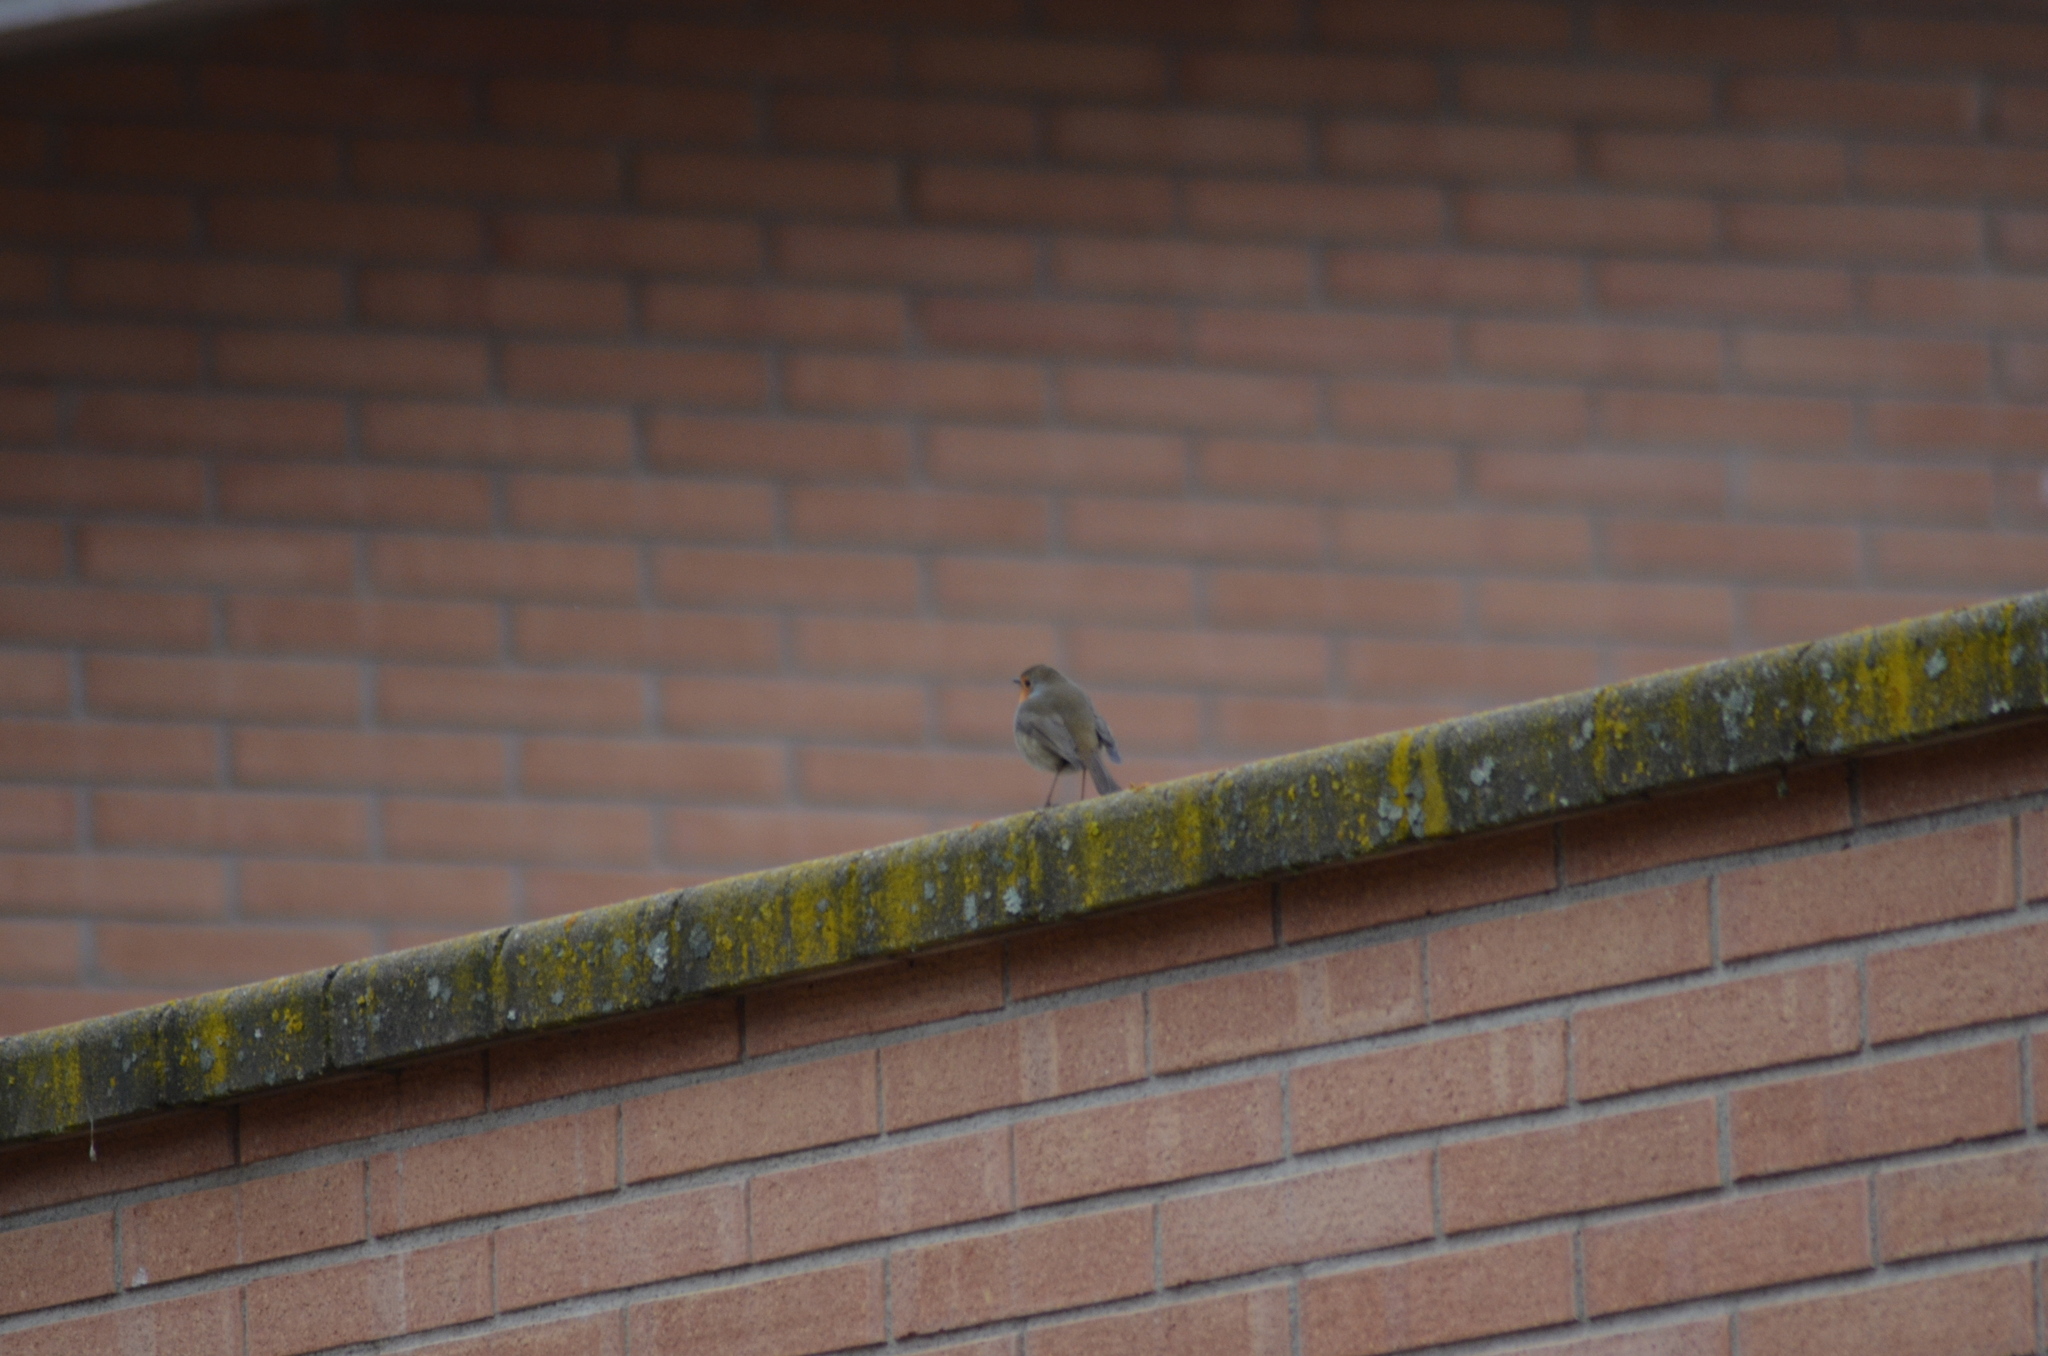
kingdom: Animalia
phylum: Chordata
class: Aves
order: Passeriformes
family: Muscicapidae
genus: Erithacus
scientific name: Erithacus rubecula
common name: European robin
